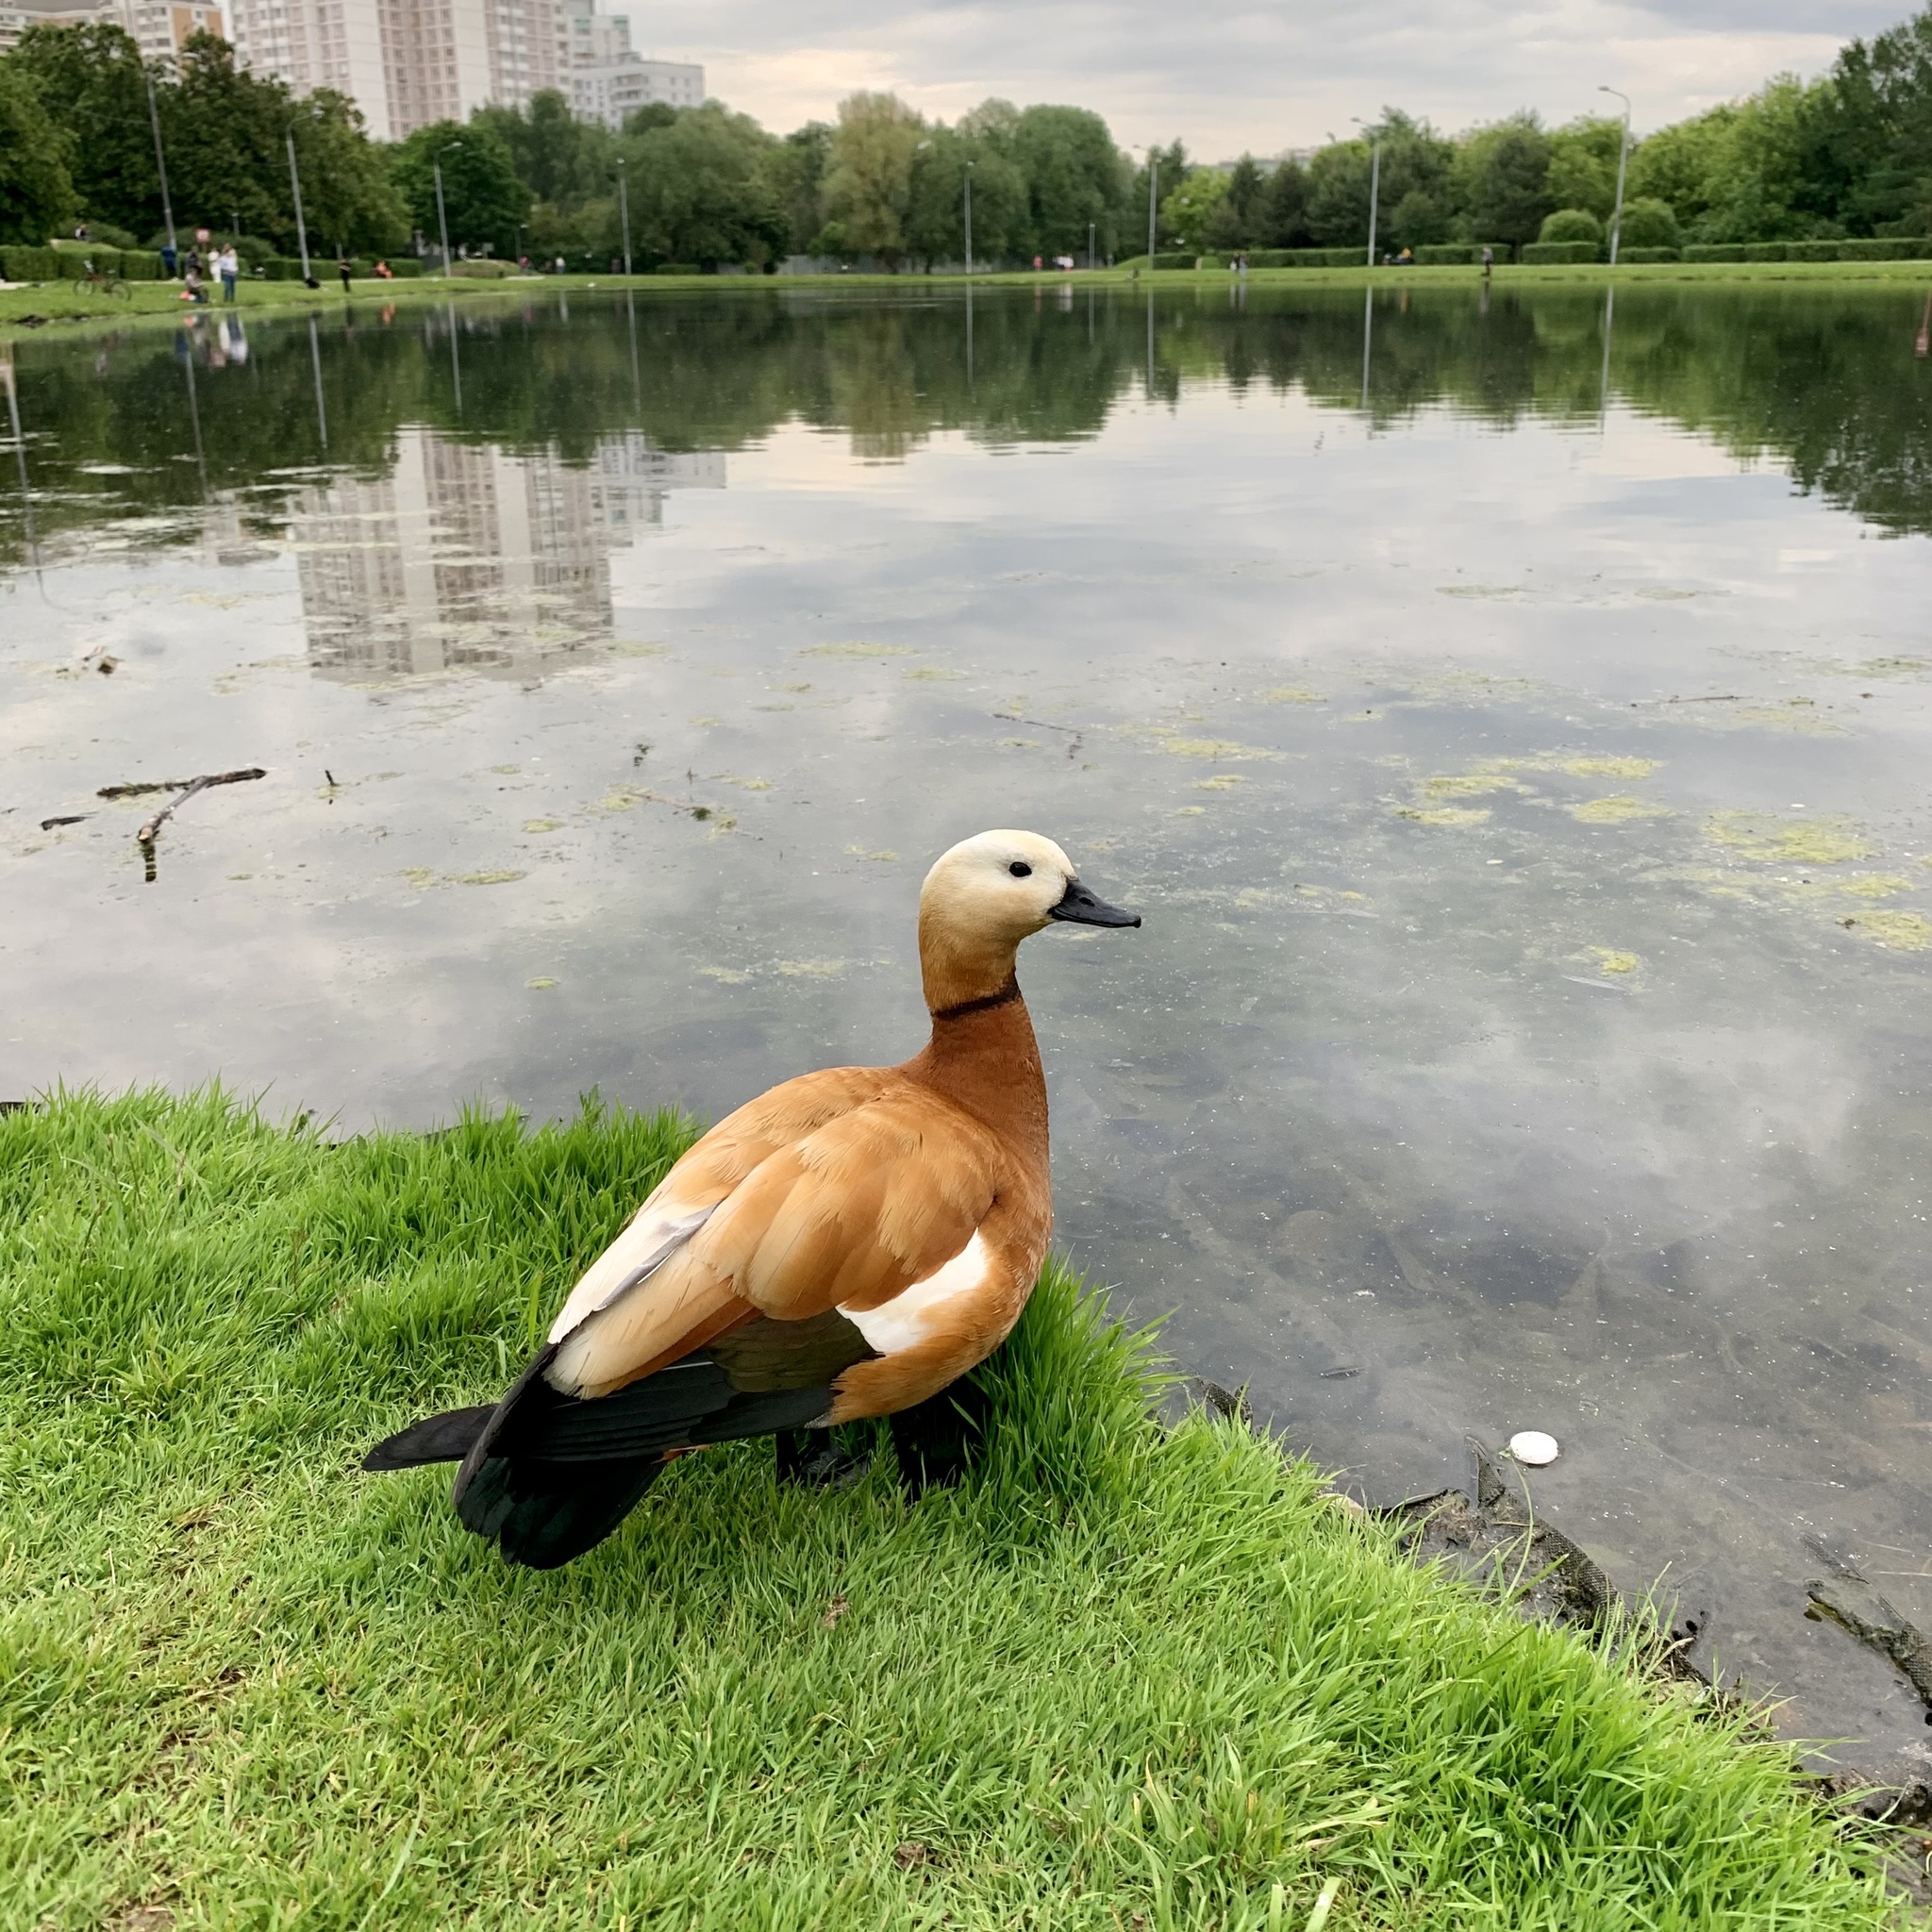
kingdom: Animalia
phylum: Chordata
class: Aves
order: Anseriformes
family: Anatidae
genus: Tadorna
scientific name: Tadorna ferruginea
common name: Ruddy shelduck
